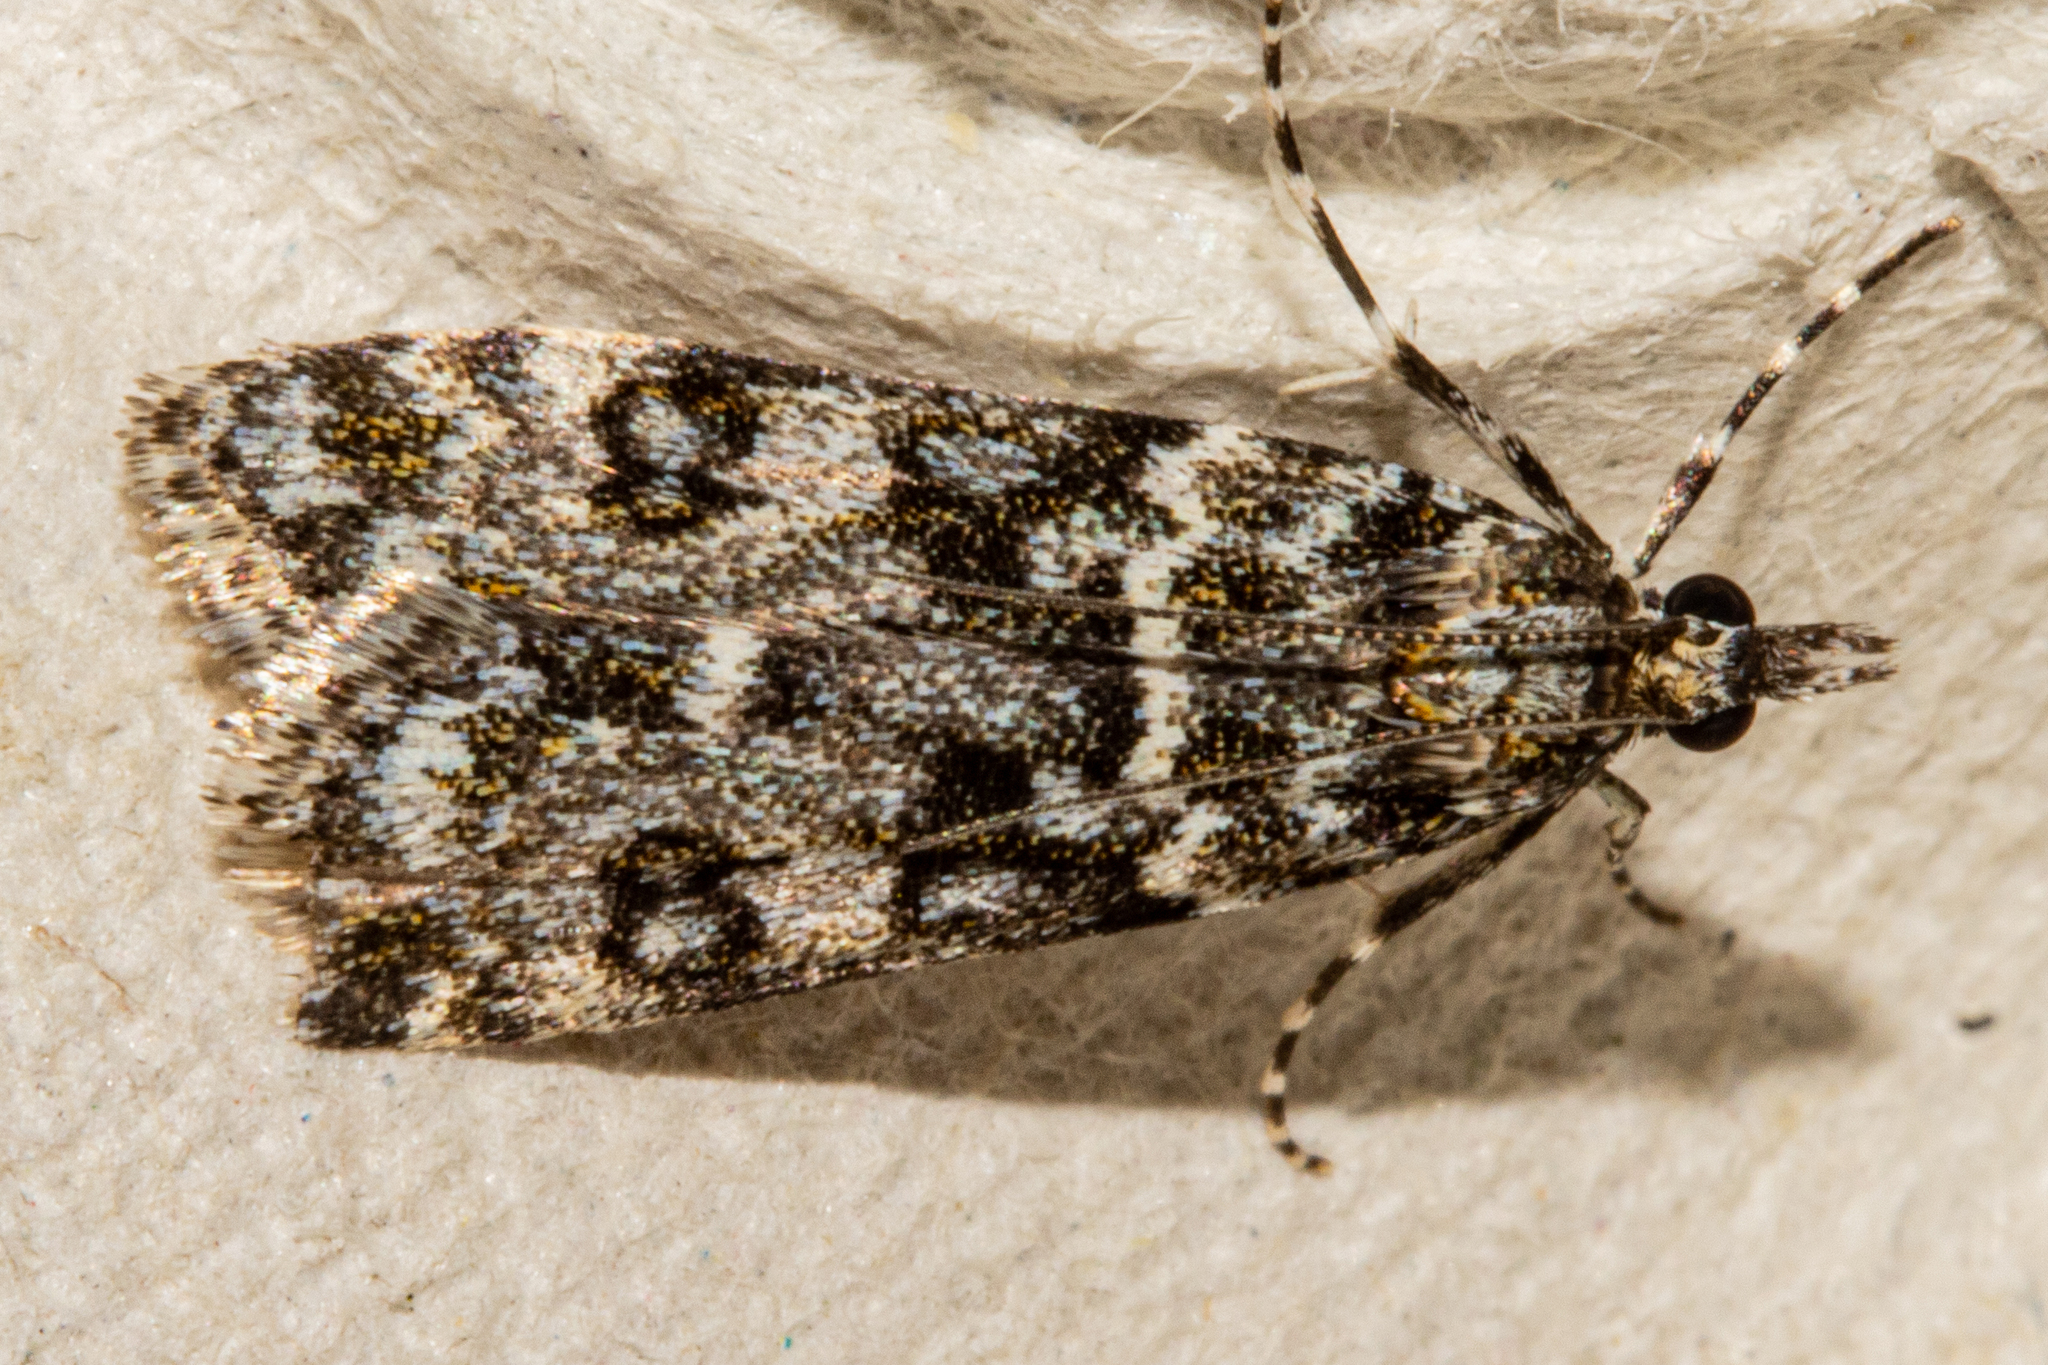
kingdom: Animalia
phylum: Arthropoda
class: Insecta
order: Lepidoptera
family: Crambidae
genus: Eudonia
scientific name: Eudonia
